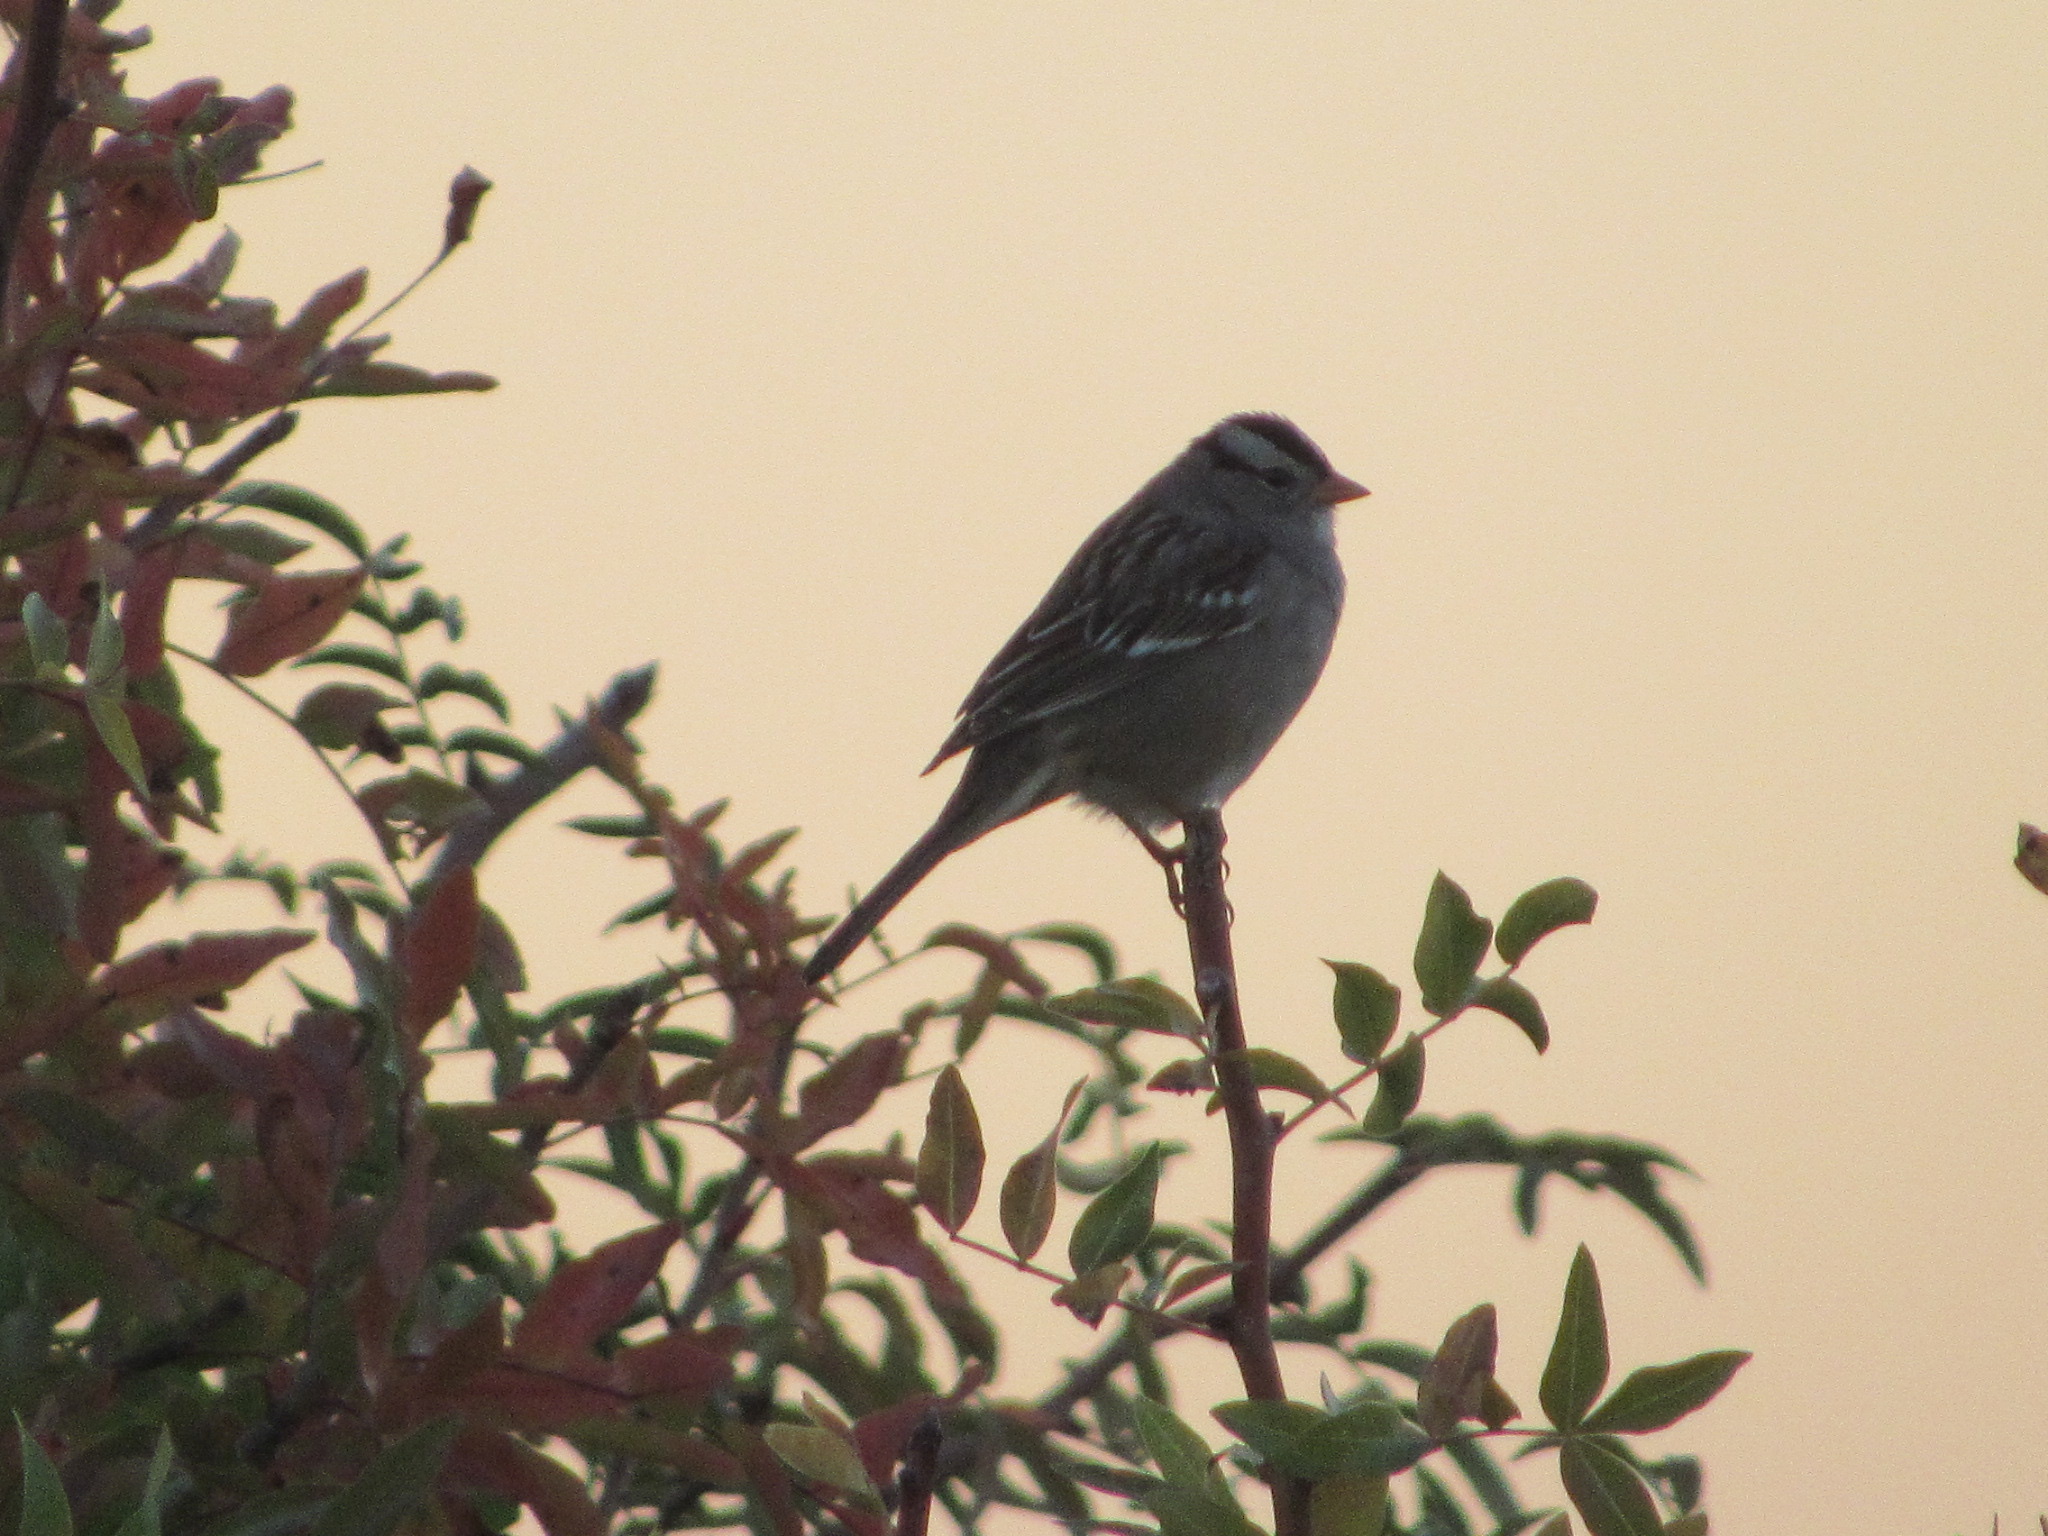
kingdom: Animalia
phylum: Chordata
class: Aves
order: Passeriformes
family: Passerellidae
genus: Zonotrichia
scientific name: Zonotrichia leucophrys
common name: White-crowned sparrow
